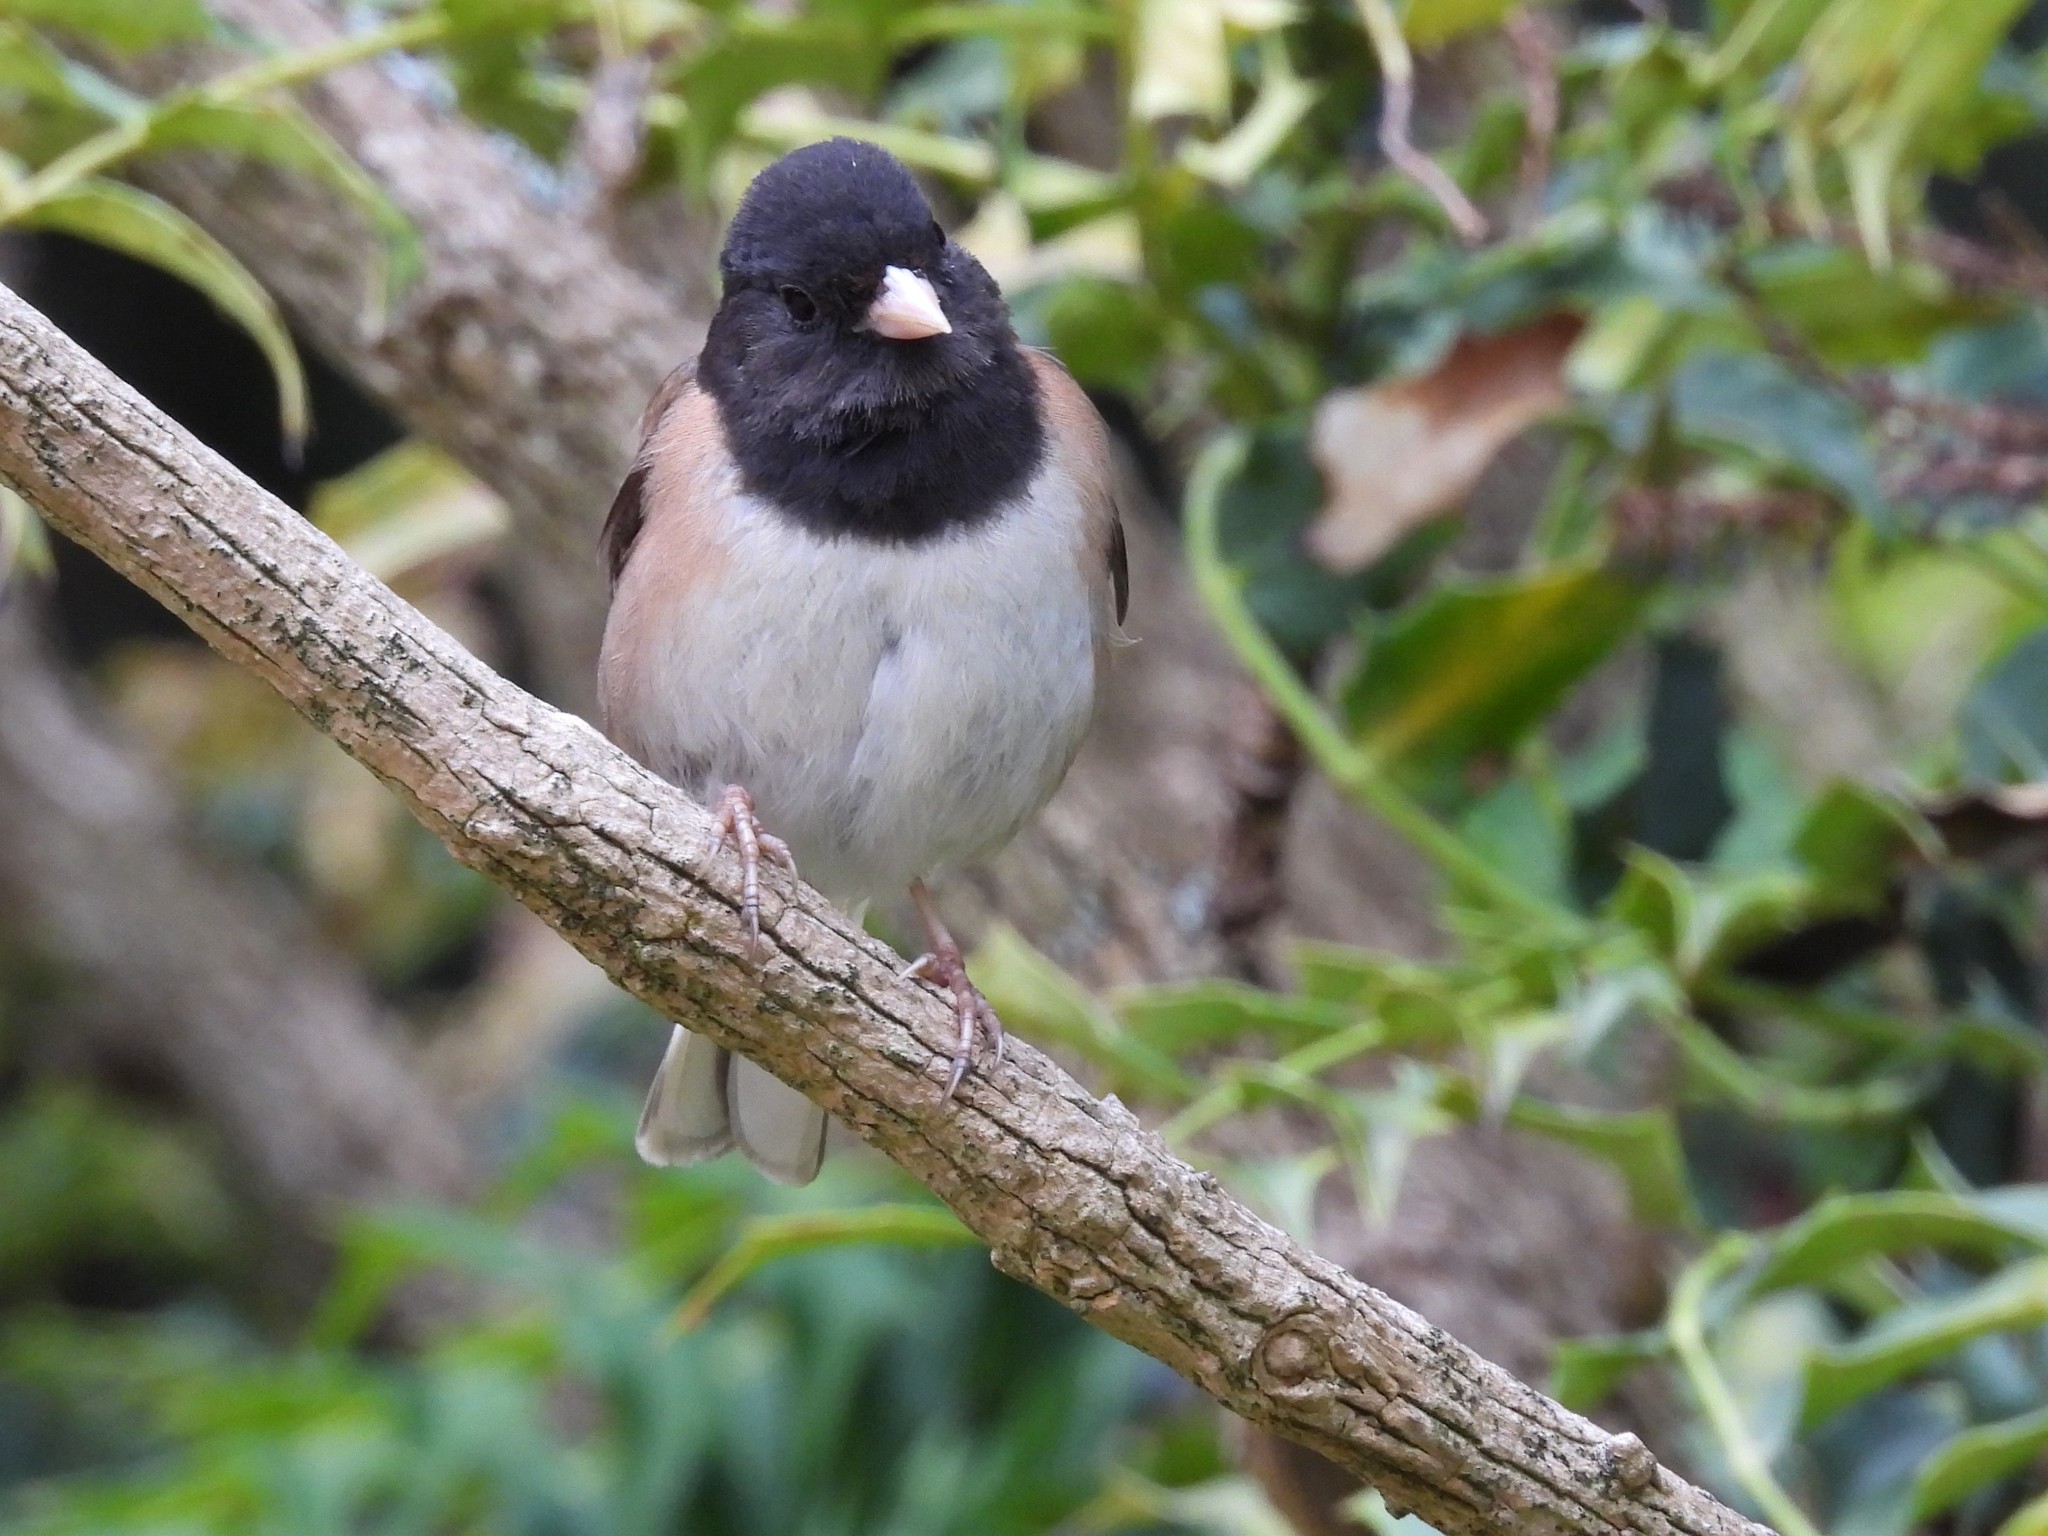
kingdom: Animalia
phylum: Chordata
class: Aves
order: Passeriformes
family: Passerellidae
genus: Junco
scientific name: Junco hyemalis
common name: Dark-eyed junco
